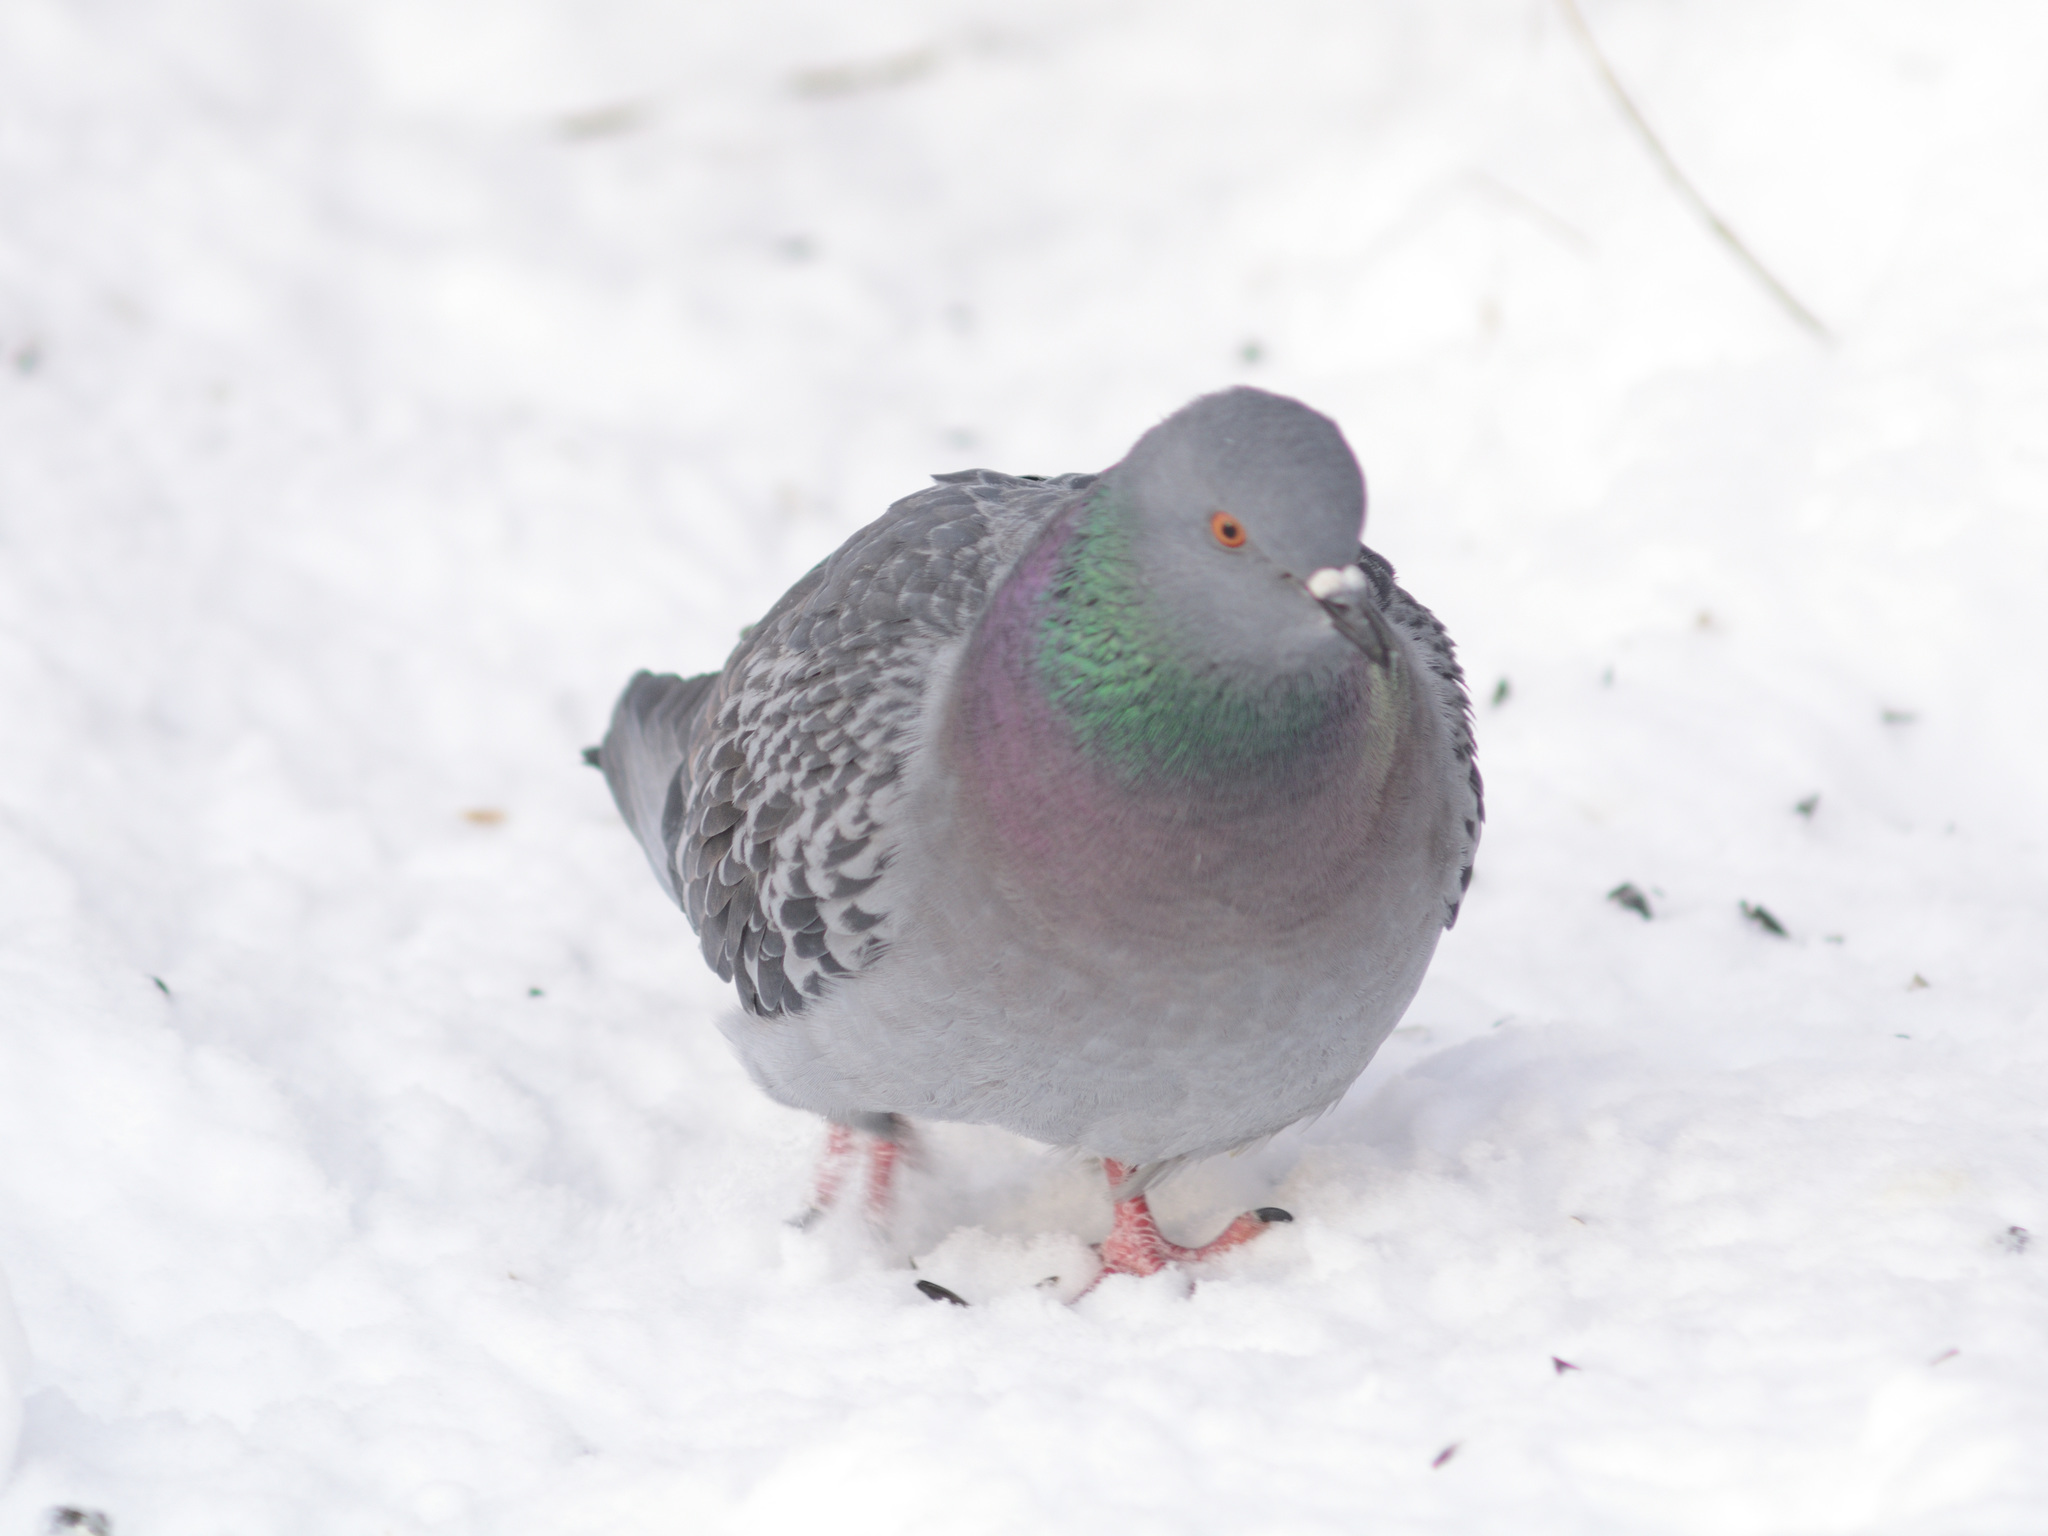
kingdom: Animalia
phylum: Chordata
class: Aves
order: Columbiformes
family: Columbidae
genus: Columba
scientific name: Columba livia
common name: Rock pigeon
